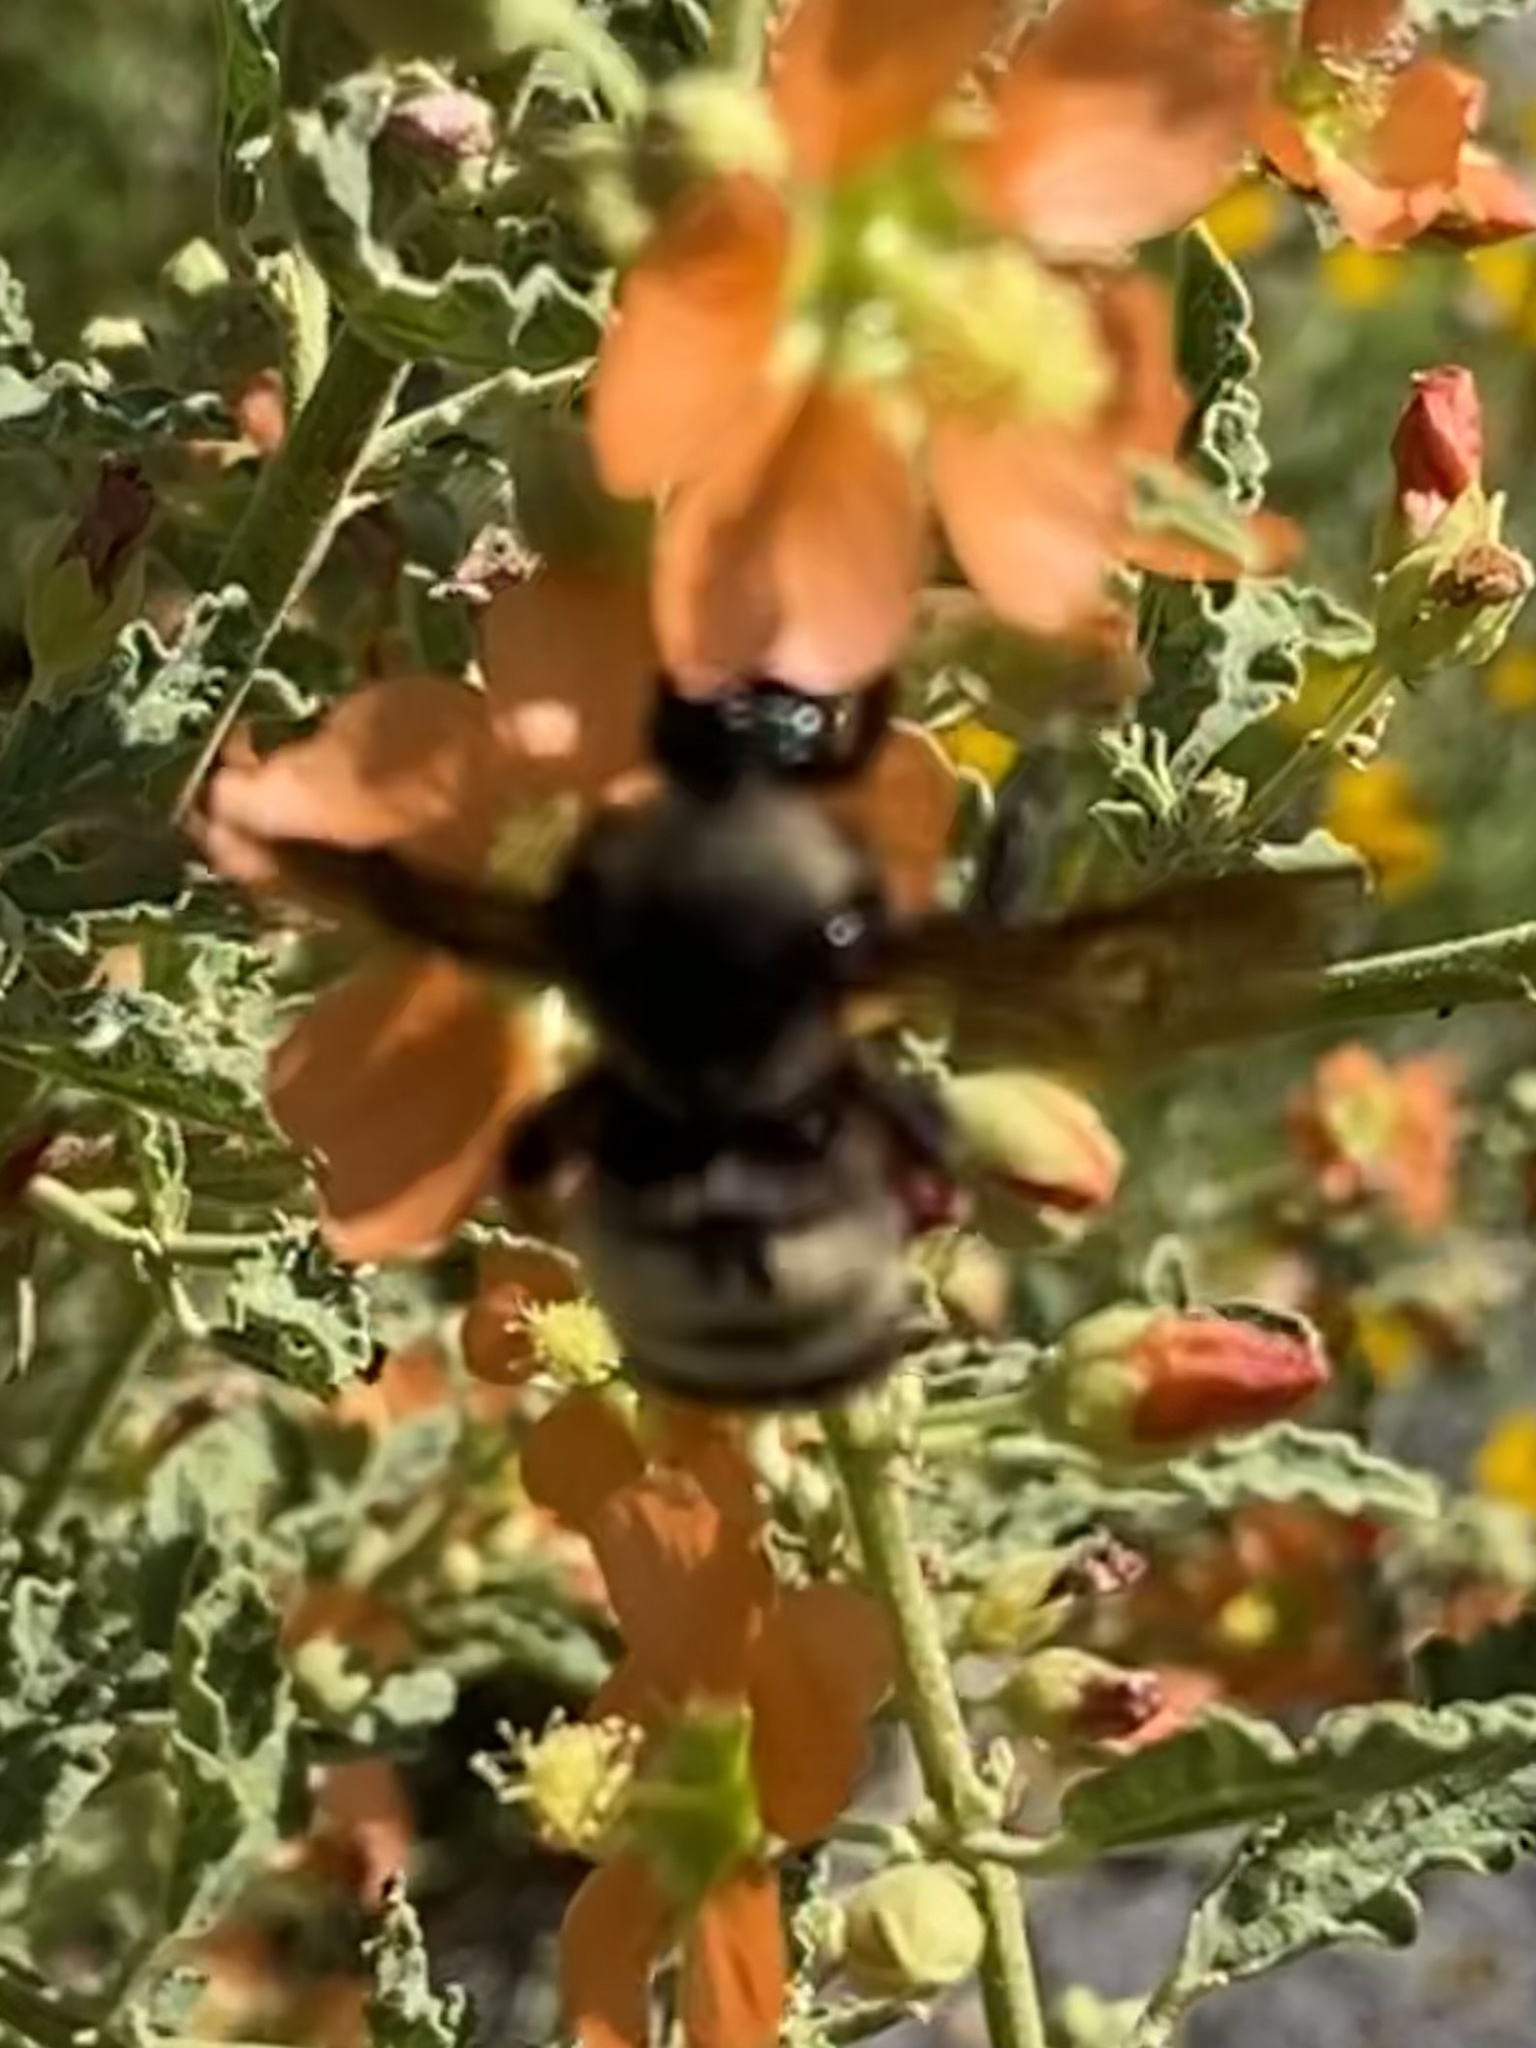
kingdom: Animalia
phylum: Arthropoda
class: Insecta
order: Hymenoptera
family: Apidae
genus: Bombus
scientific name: Bombus pensylvanicus
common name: Bumble bee
